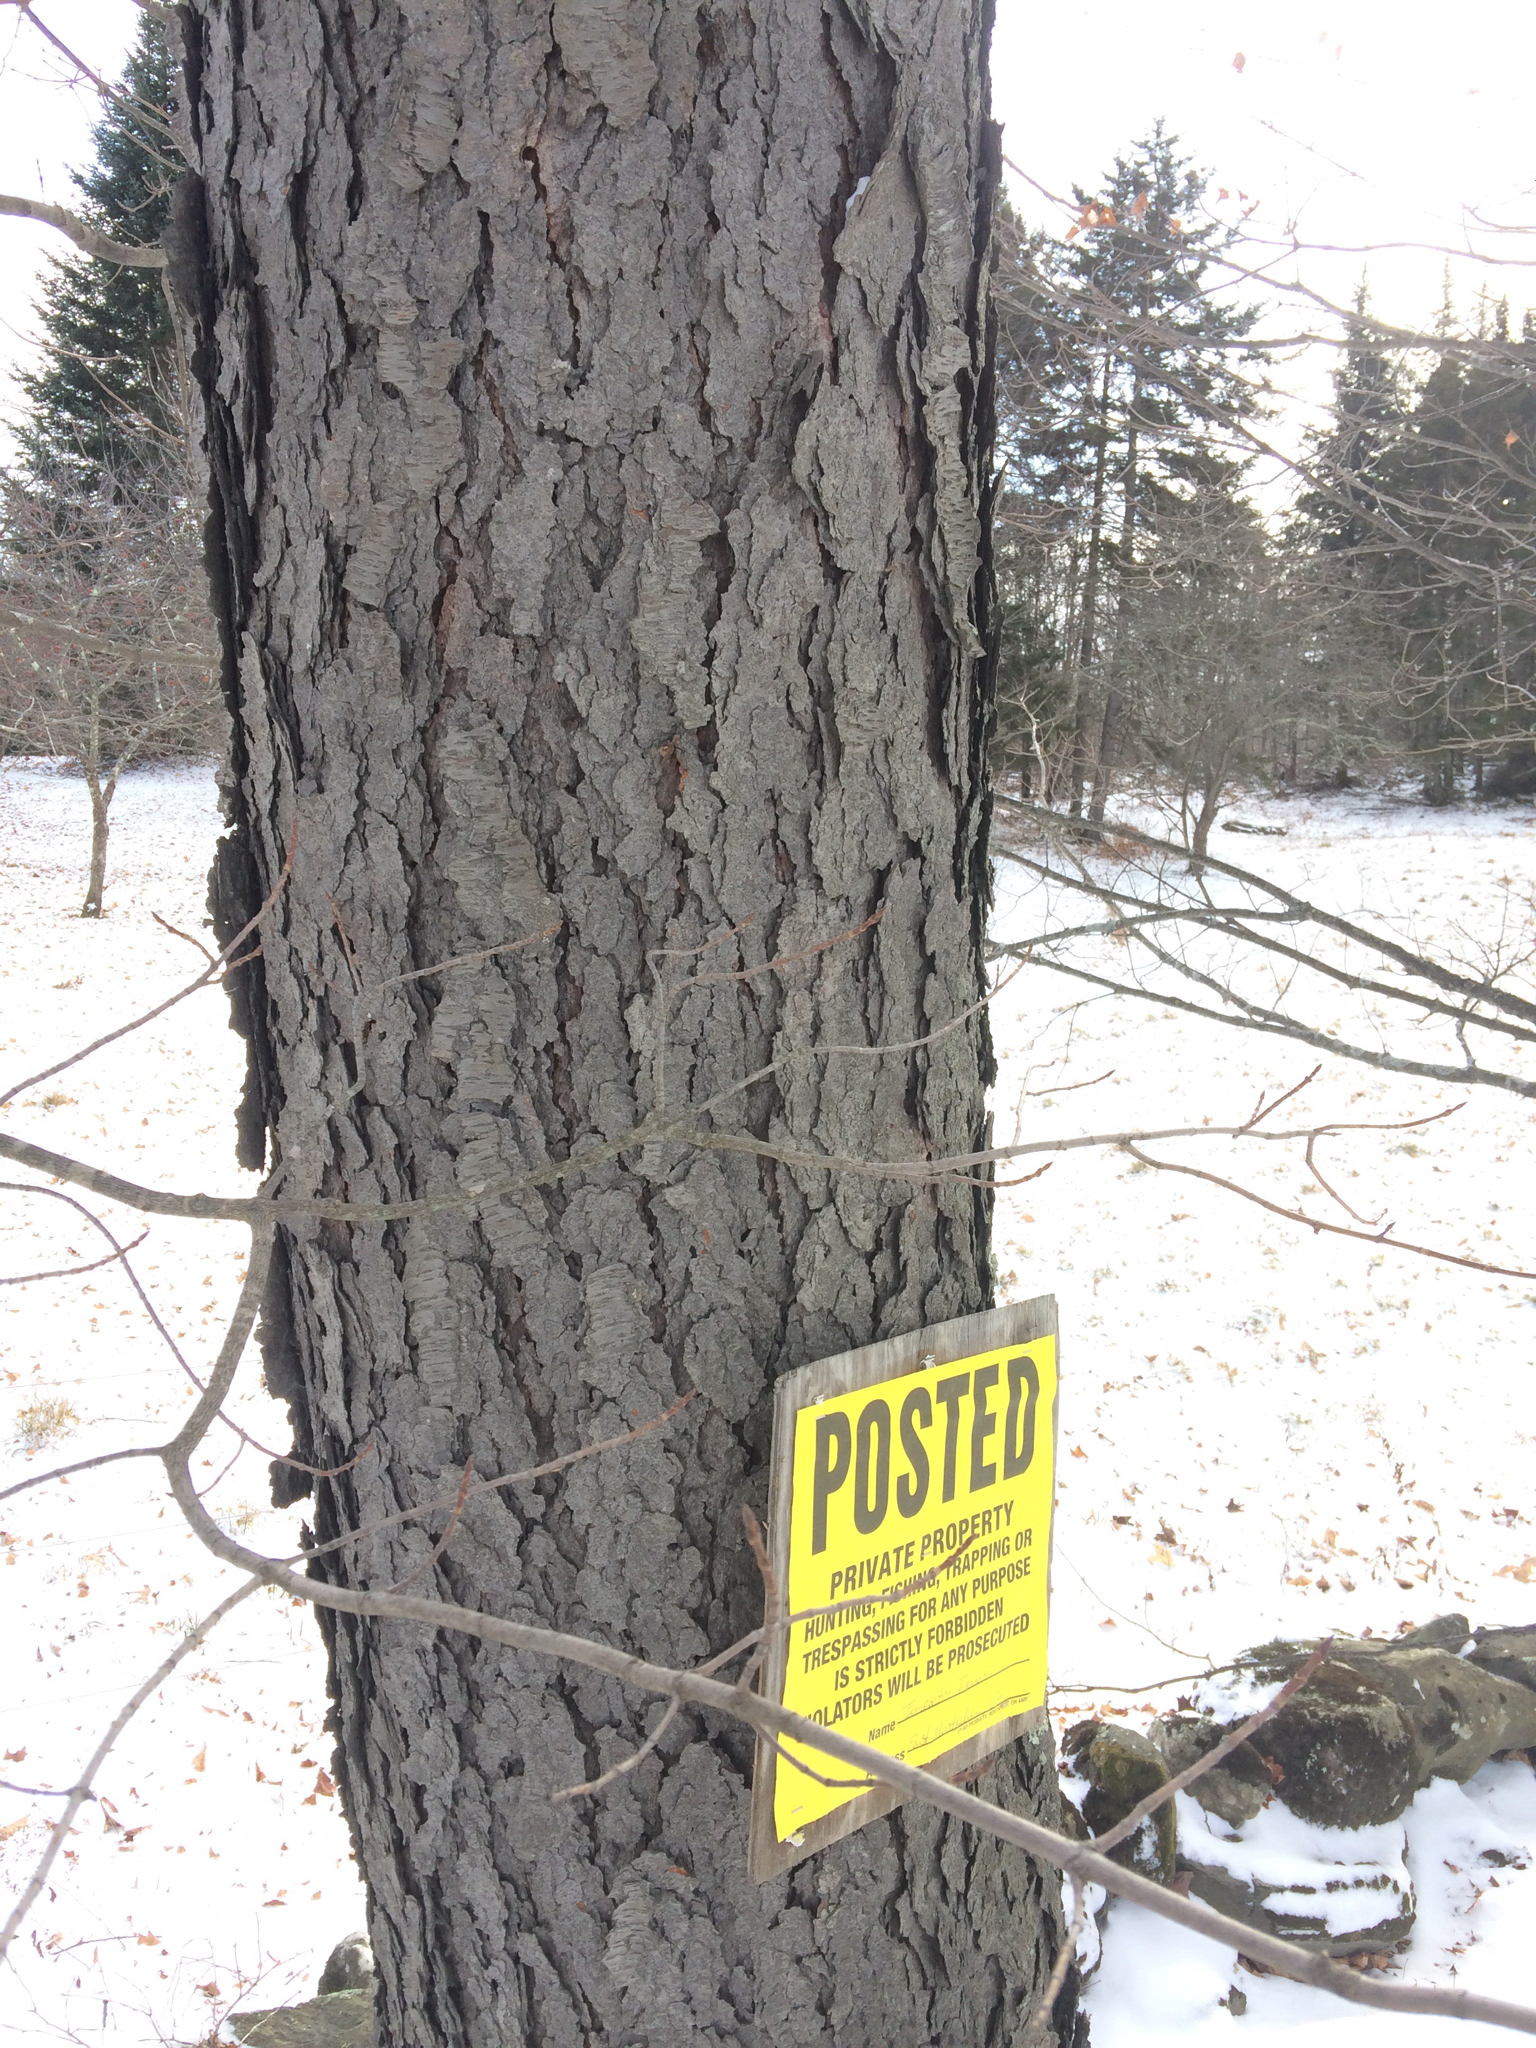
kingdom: Plantae
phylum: Tracheophyta
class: Magnoliopsida
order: Rosales
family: Rosaceae
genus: Prunus
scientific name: Prunus serotina
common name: Black cherry
